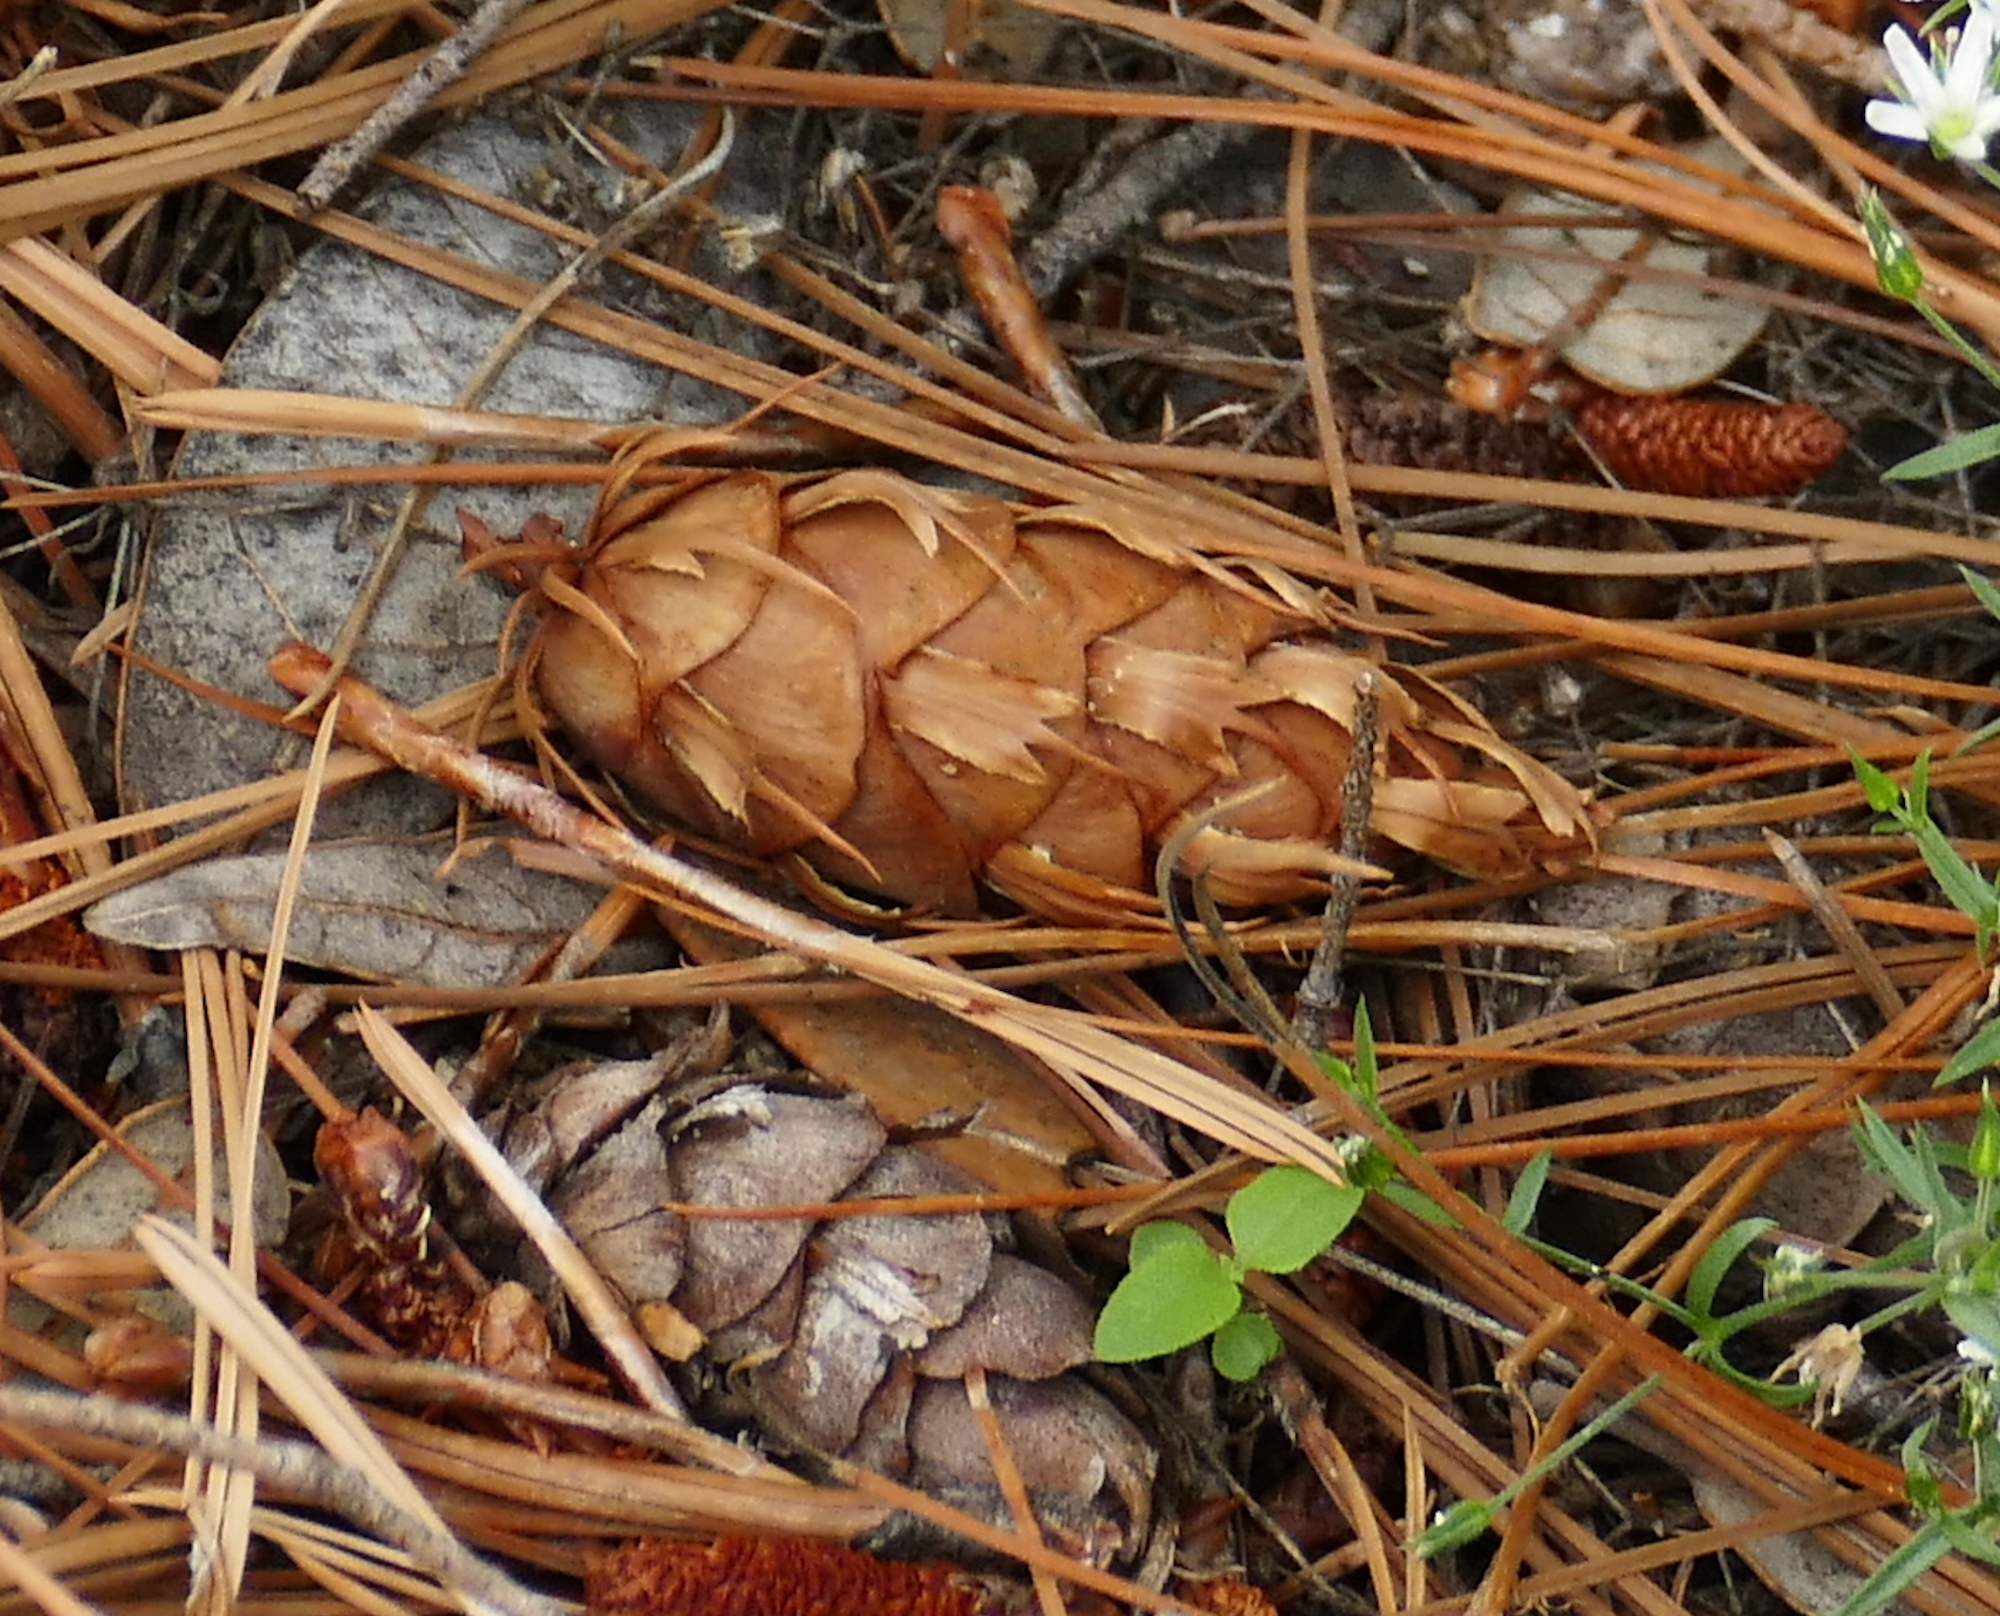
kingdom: Plantae
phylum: Tracheophyta
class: Pinopsida
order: Pinales
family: Pinaceae
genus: Pseudotsuga
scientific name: Pseudotsuga menziesii
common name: Douglas fir
